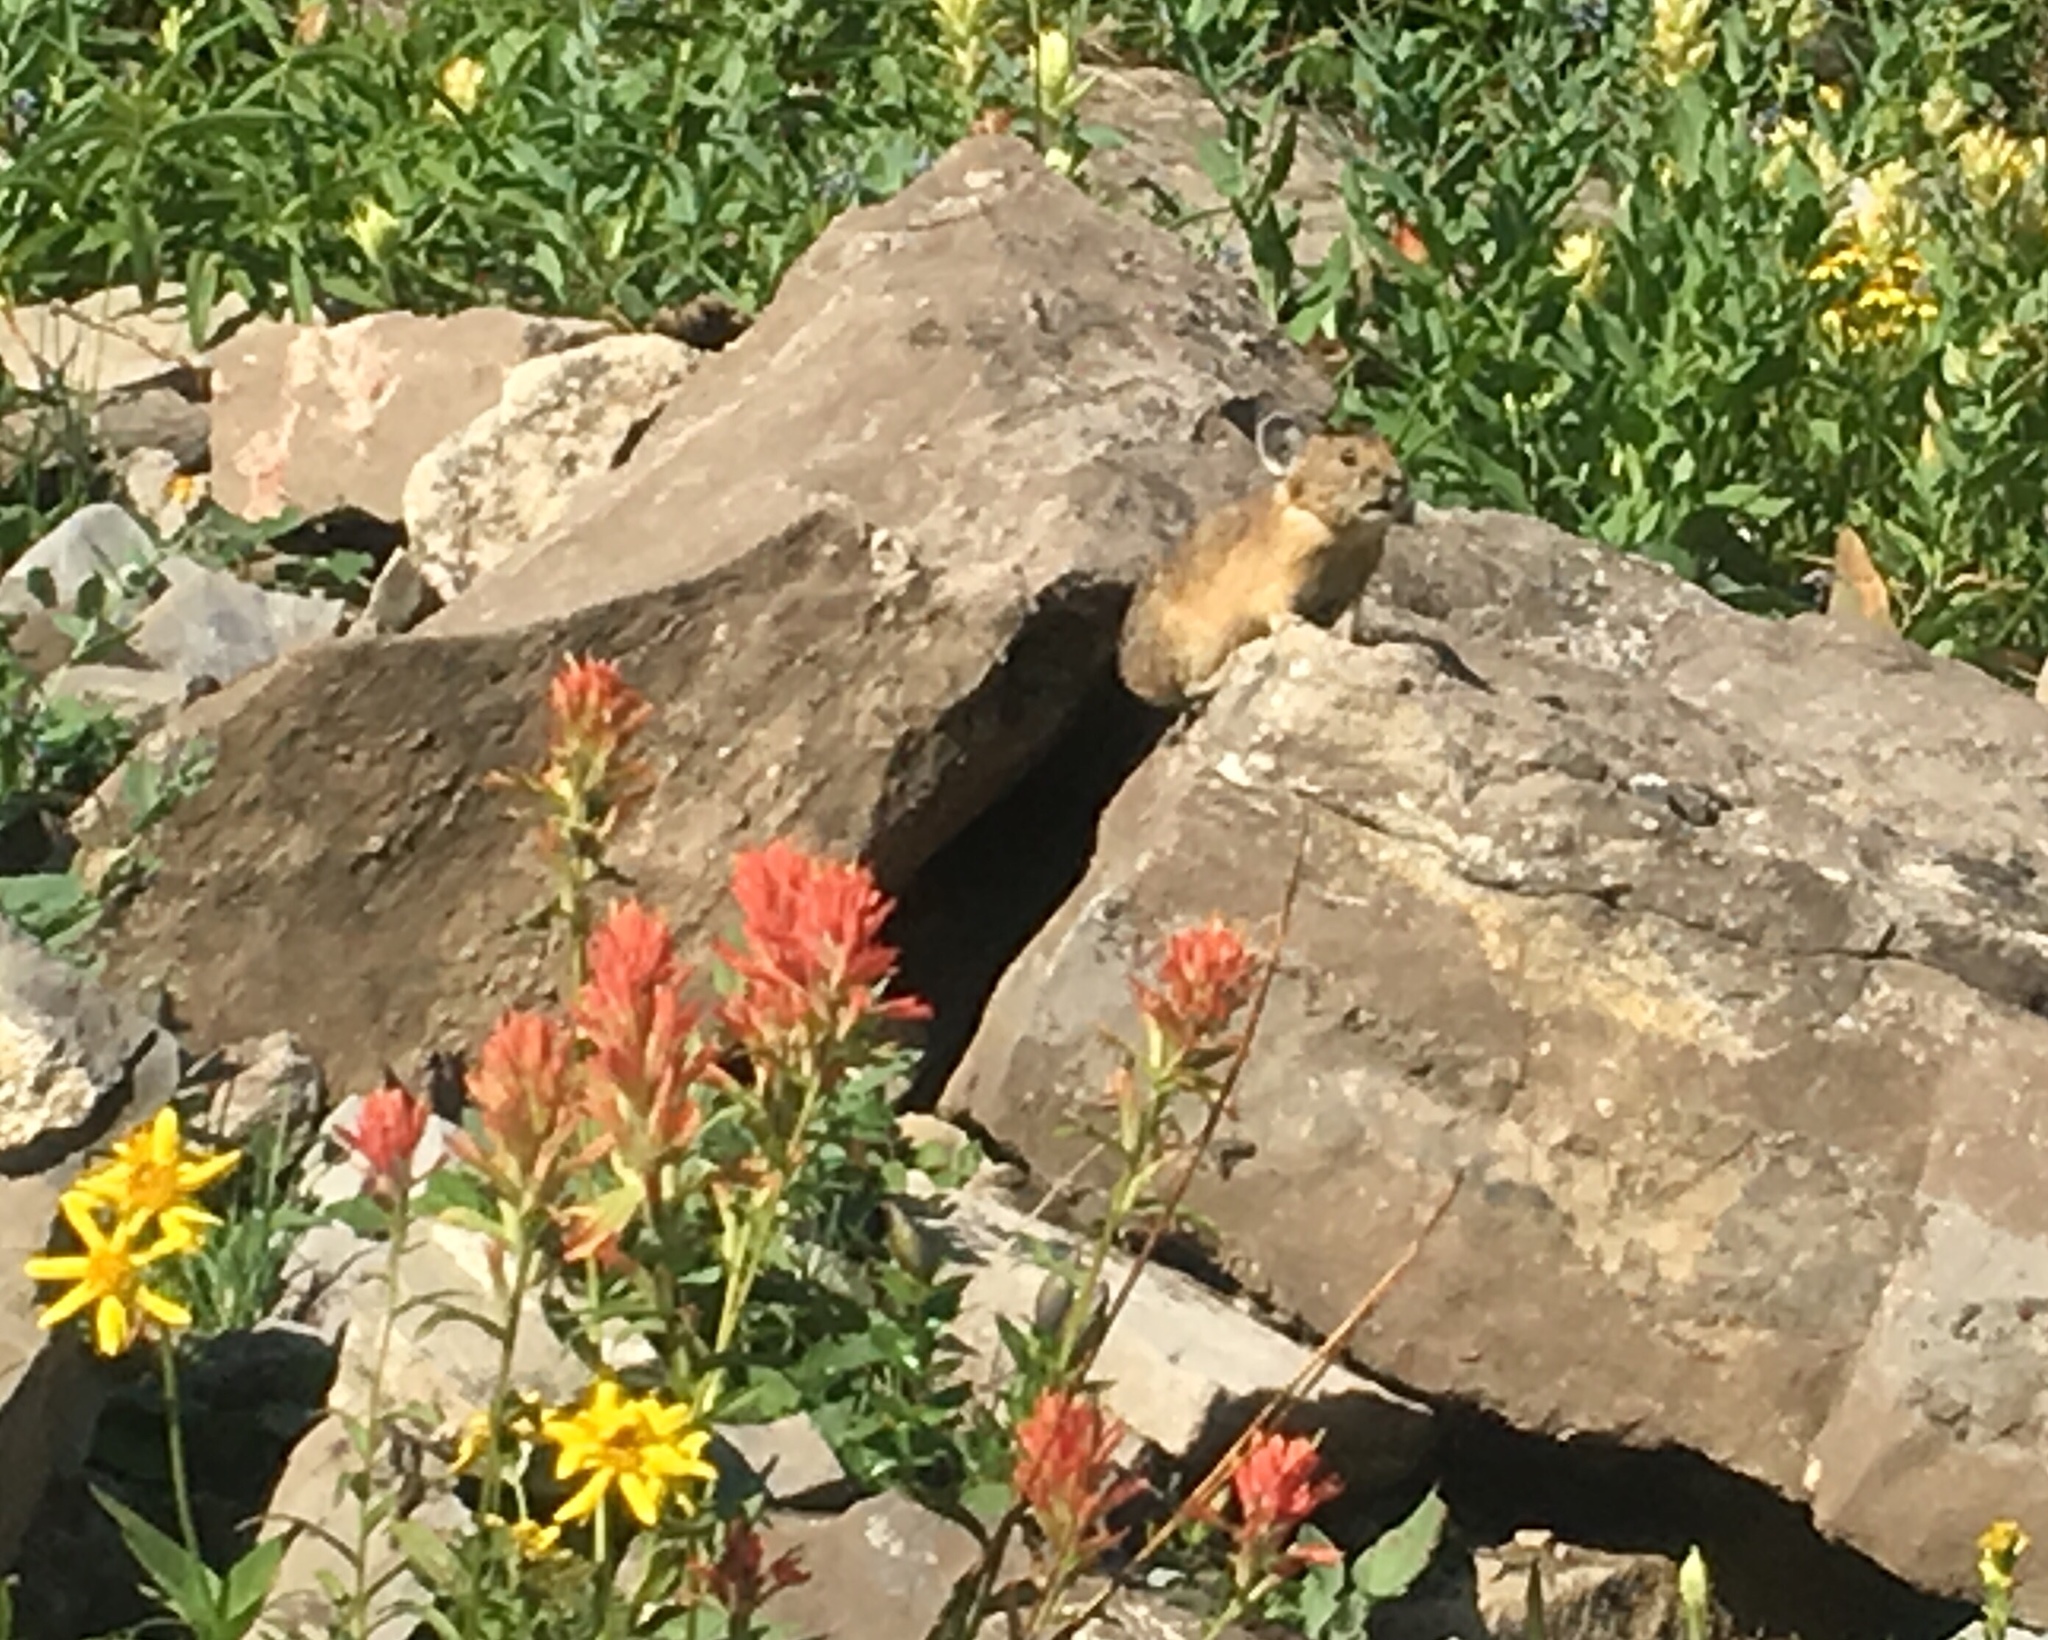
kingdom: Animalia
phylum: Chordata
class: Mammalia
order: Lagomorpha
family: Ochotonidae
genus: Ochotona
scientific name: Ochotona princeps
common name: American pika
